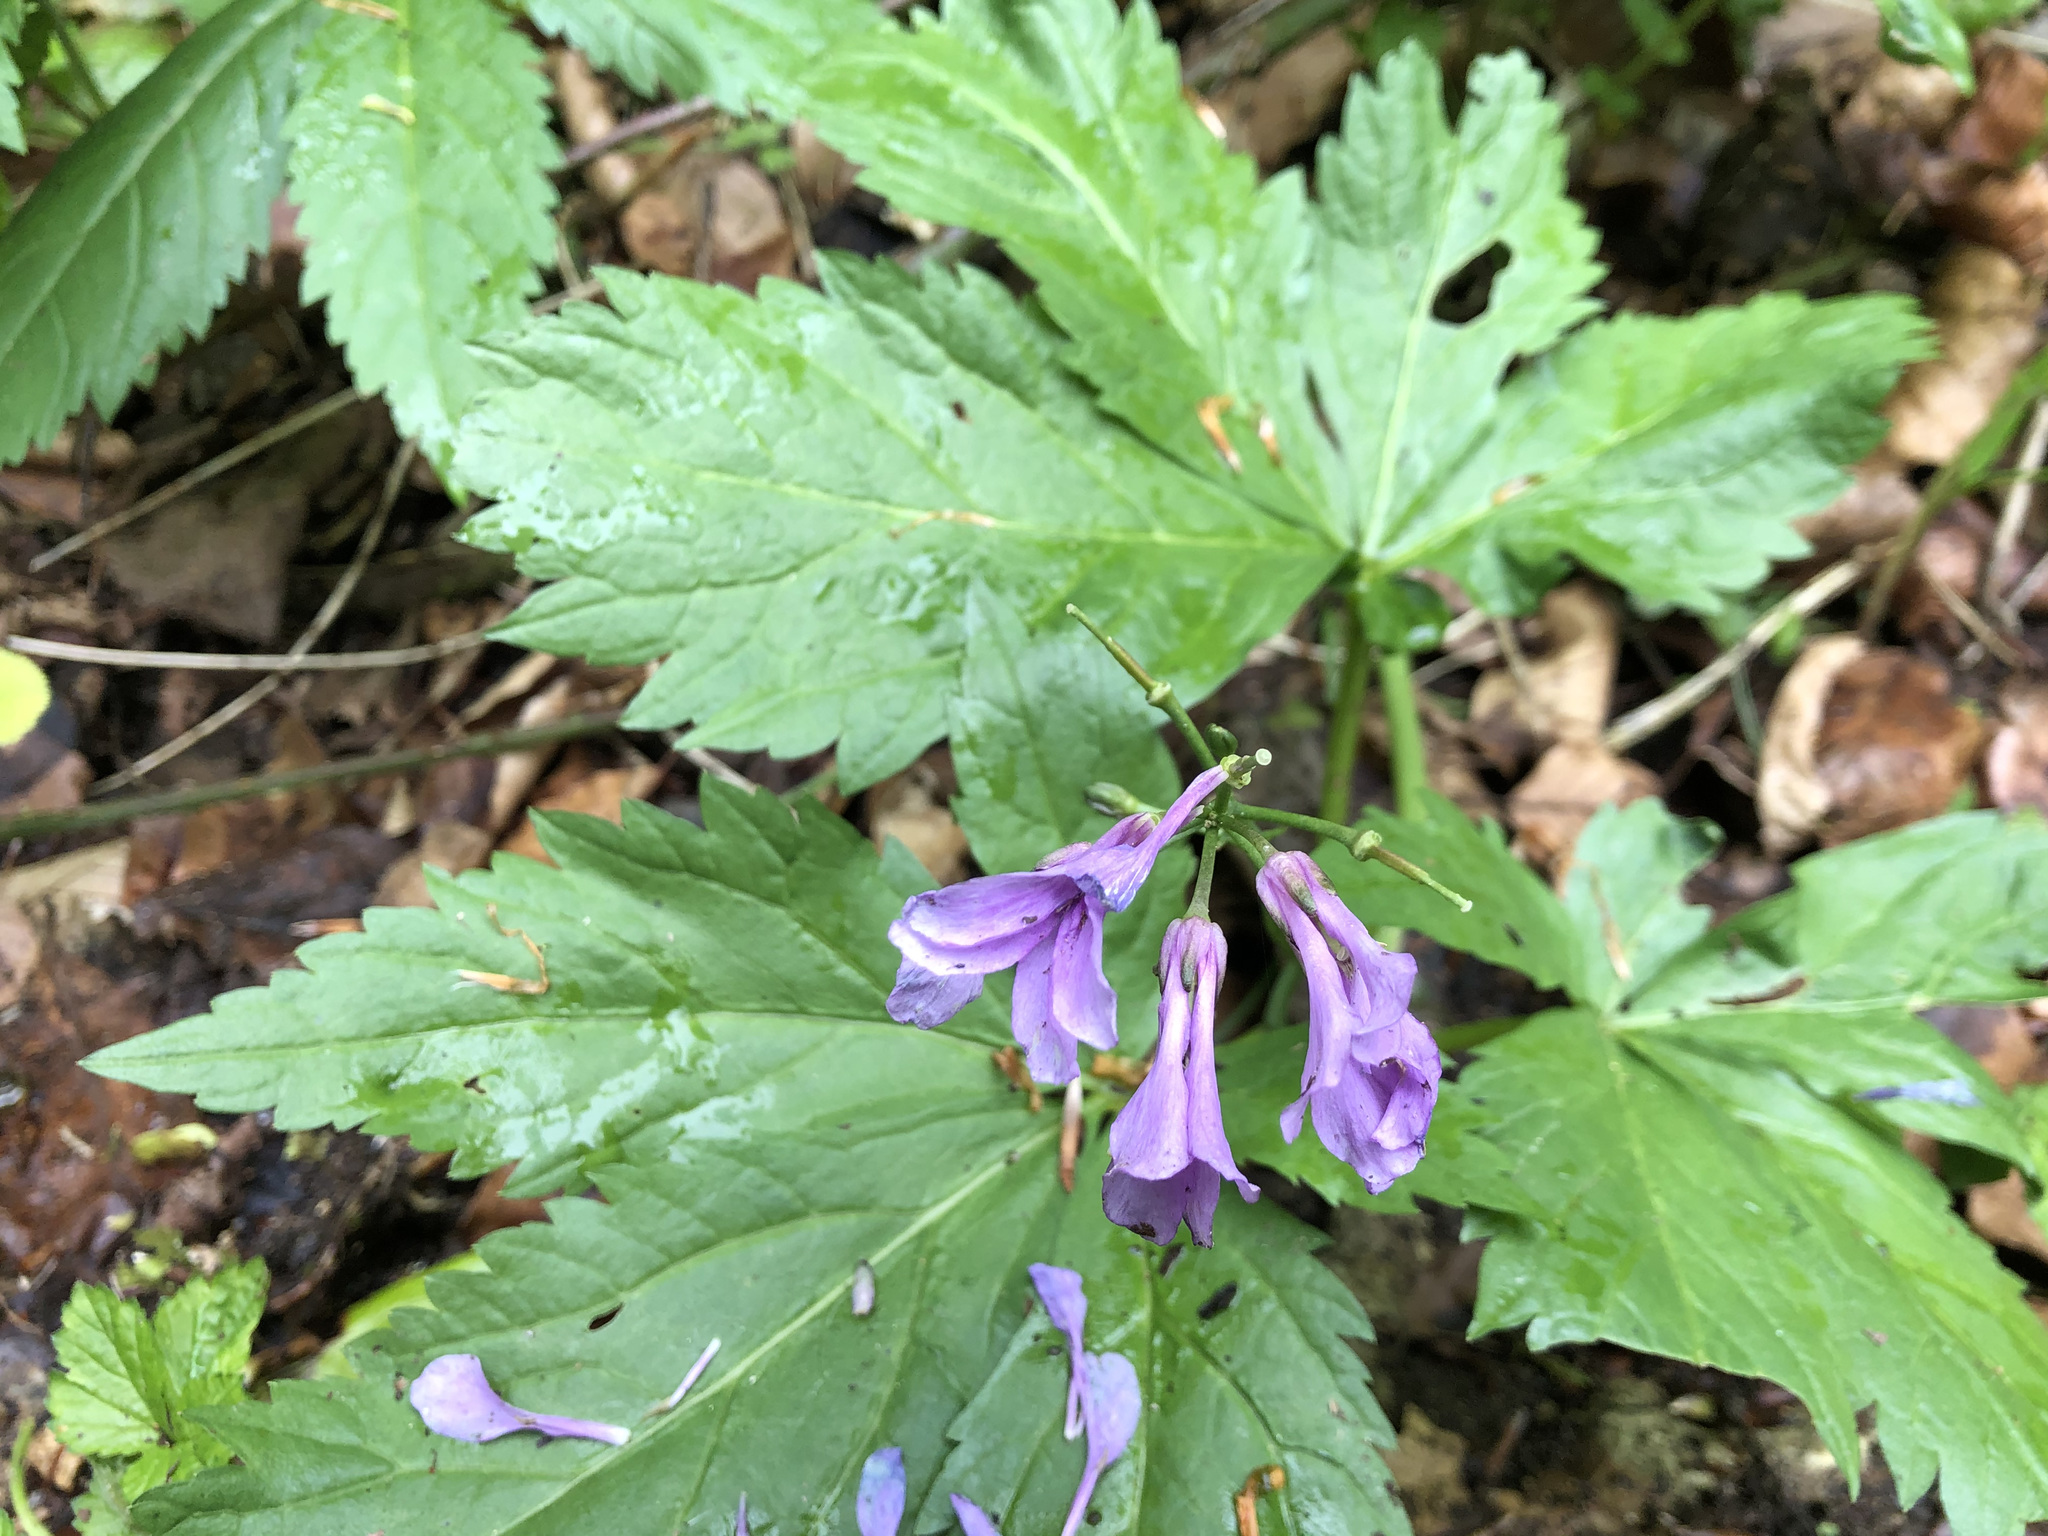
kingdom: Plantae
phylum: Tracheophyta
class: Magnoliopsida
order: Brassicales
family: Brassicaceae
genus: Cardamine
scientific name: Cardamine pentaphyllos
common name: Five-leaflet bitter-cress
